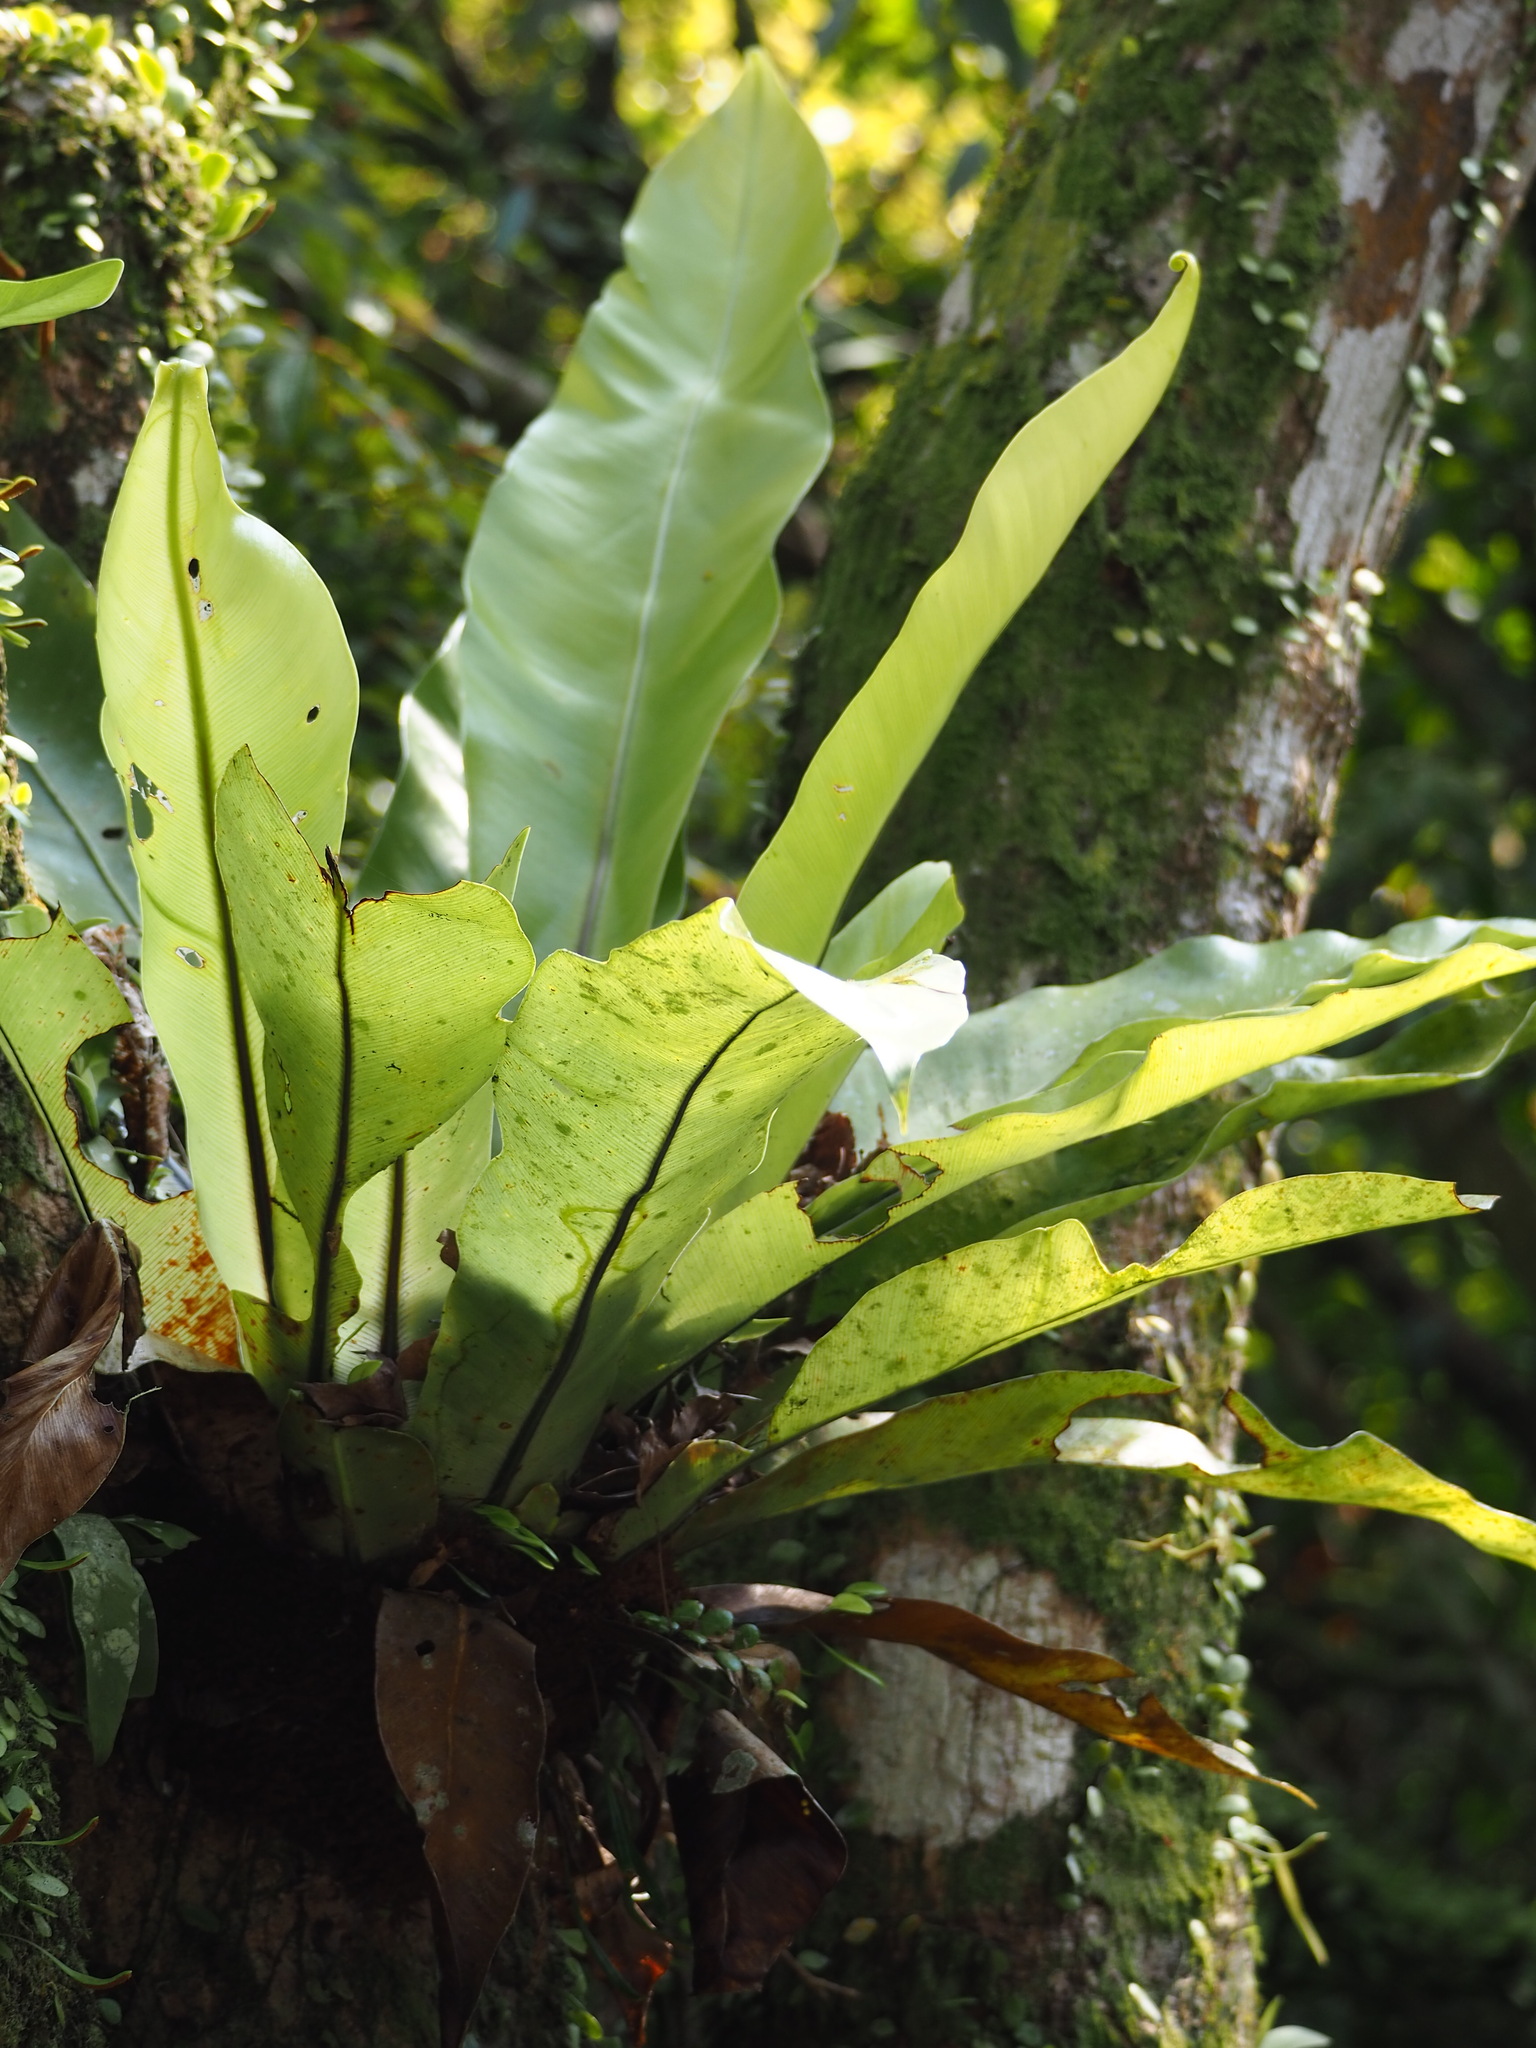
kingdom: Plantae
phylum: Tracheophyta
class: Polypodiopsida
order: Polypodiales
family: Aspleniaceae
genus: Asplenium
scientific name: Asplenium setoi
